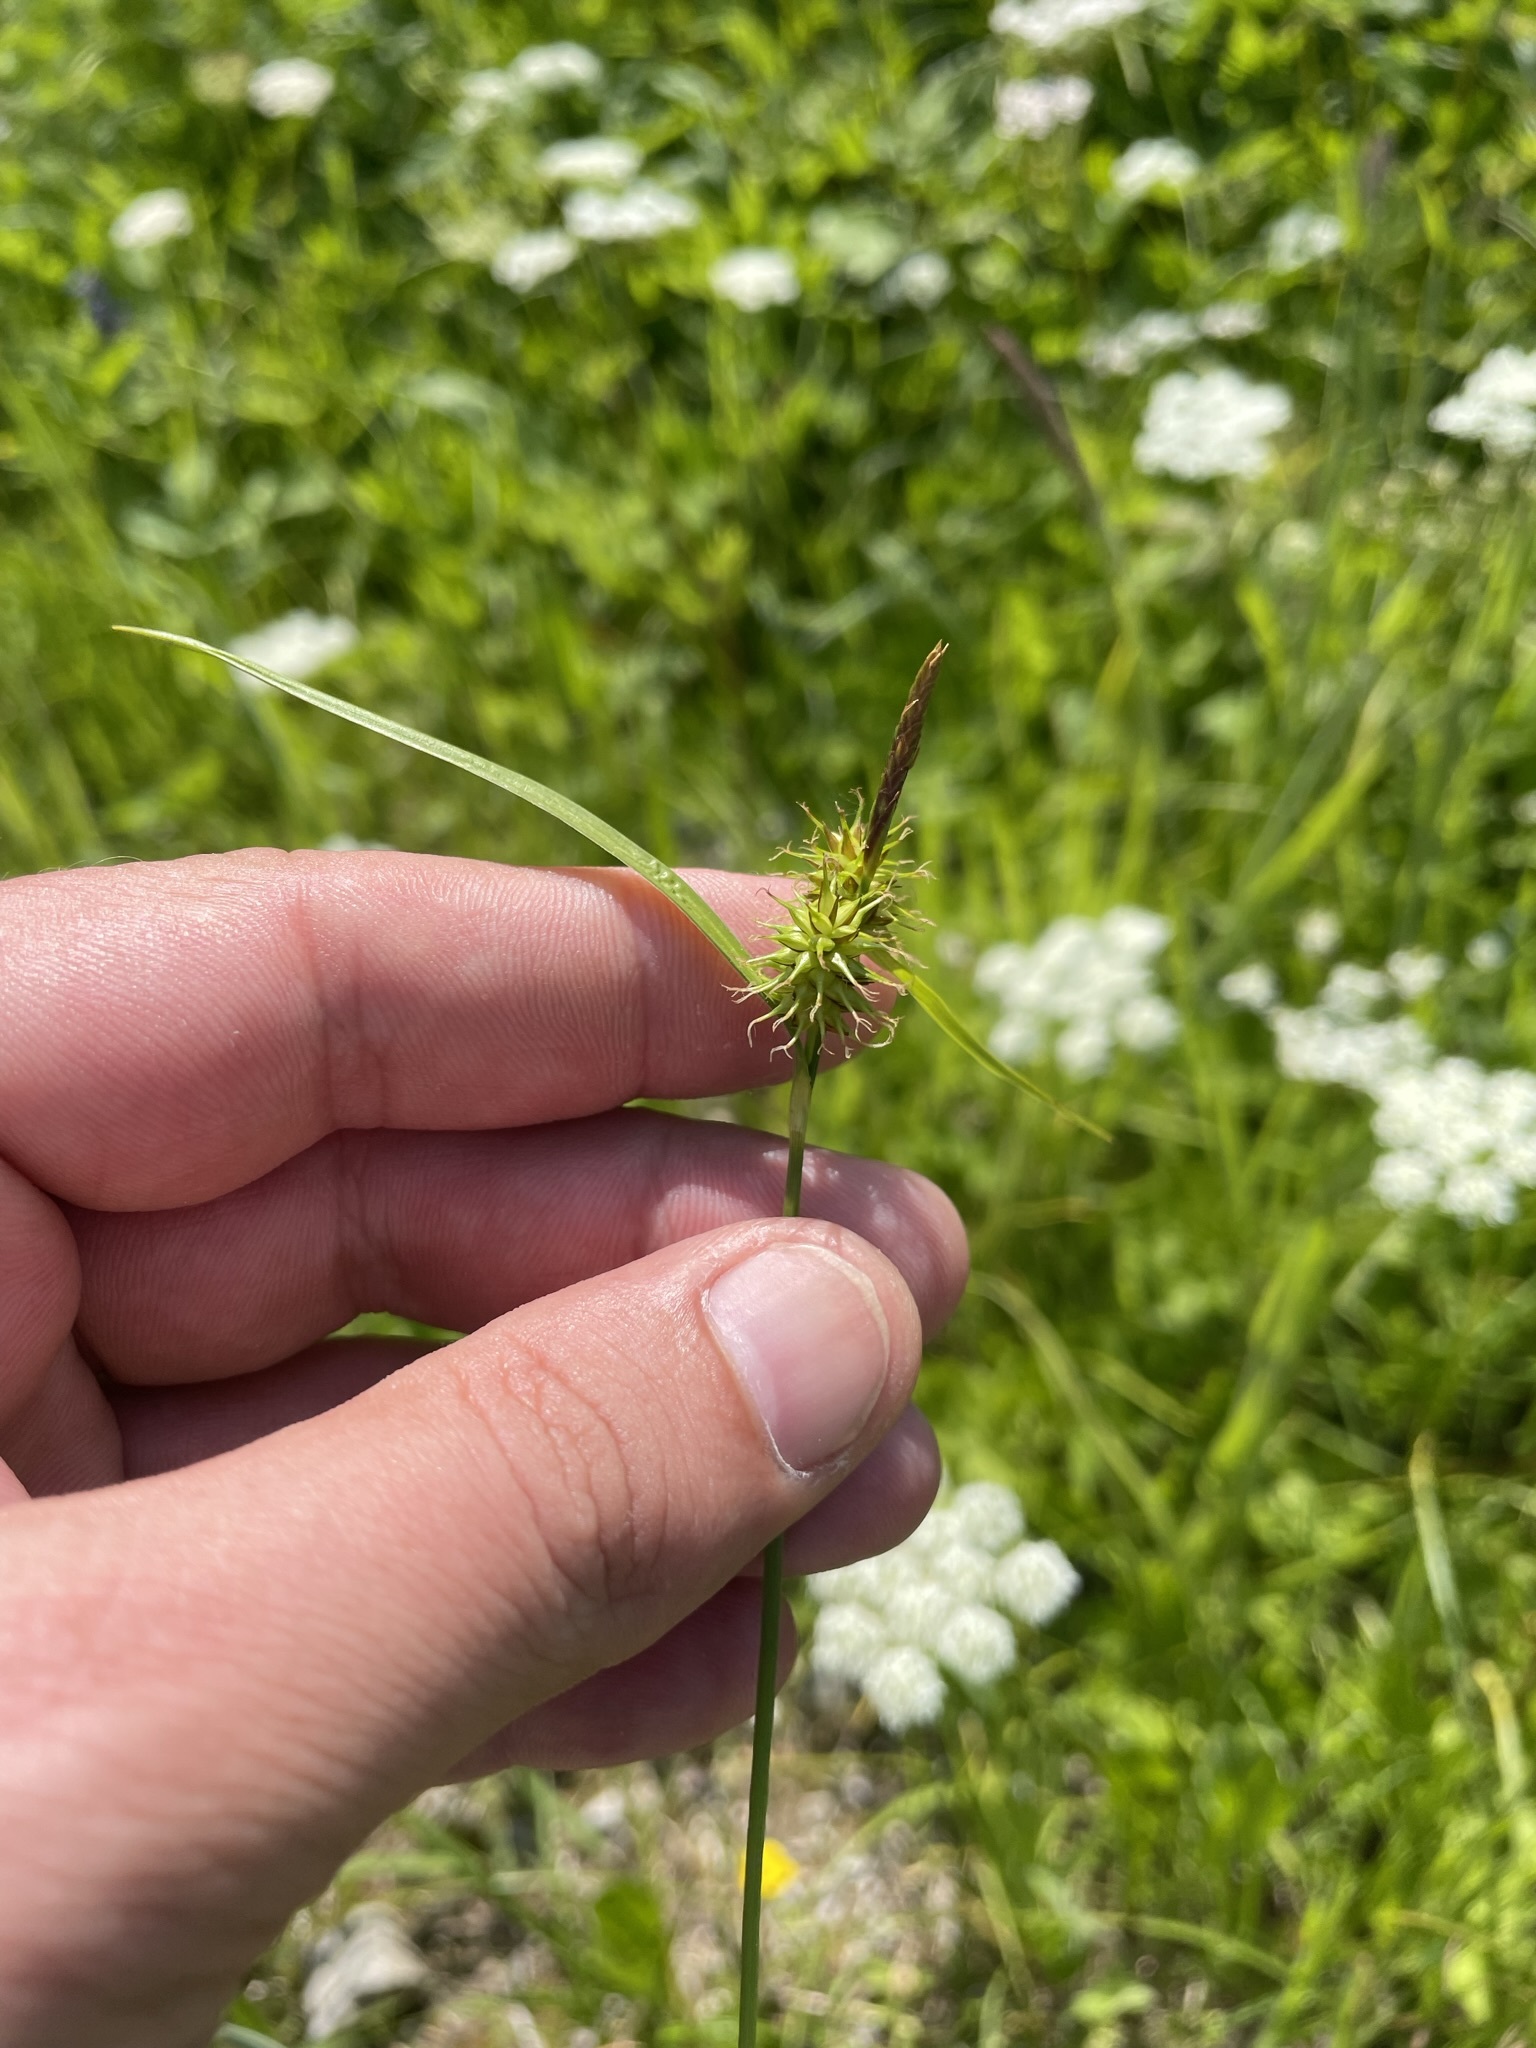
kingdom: Plantae
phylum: Tracheophyta
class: Liliopsida
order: Poales
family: Cyperaceae
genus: Carex
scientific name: Carex flava
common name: Large yellow-sedge
